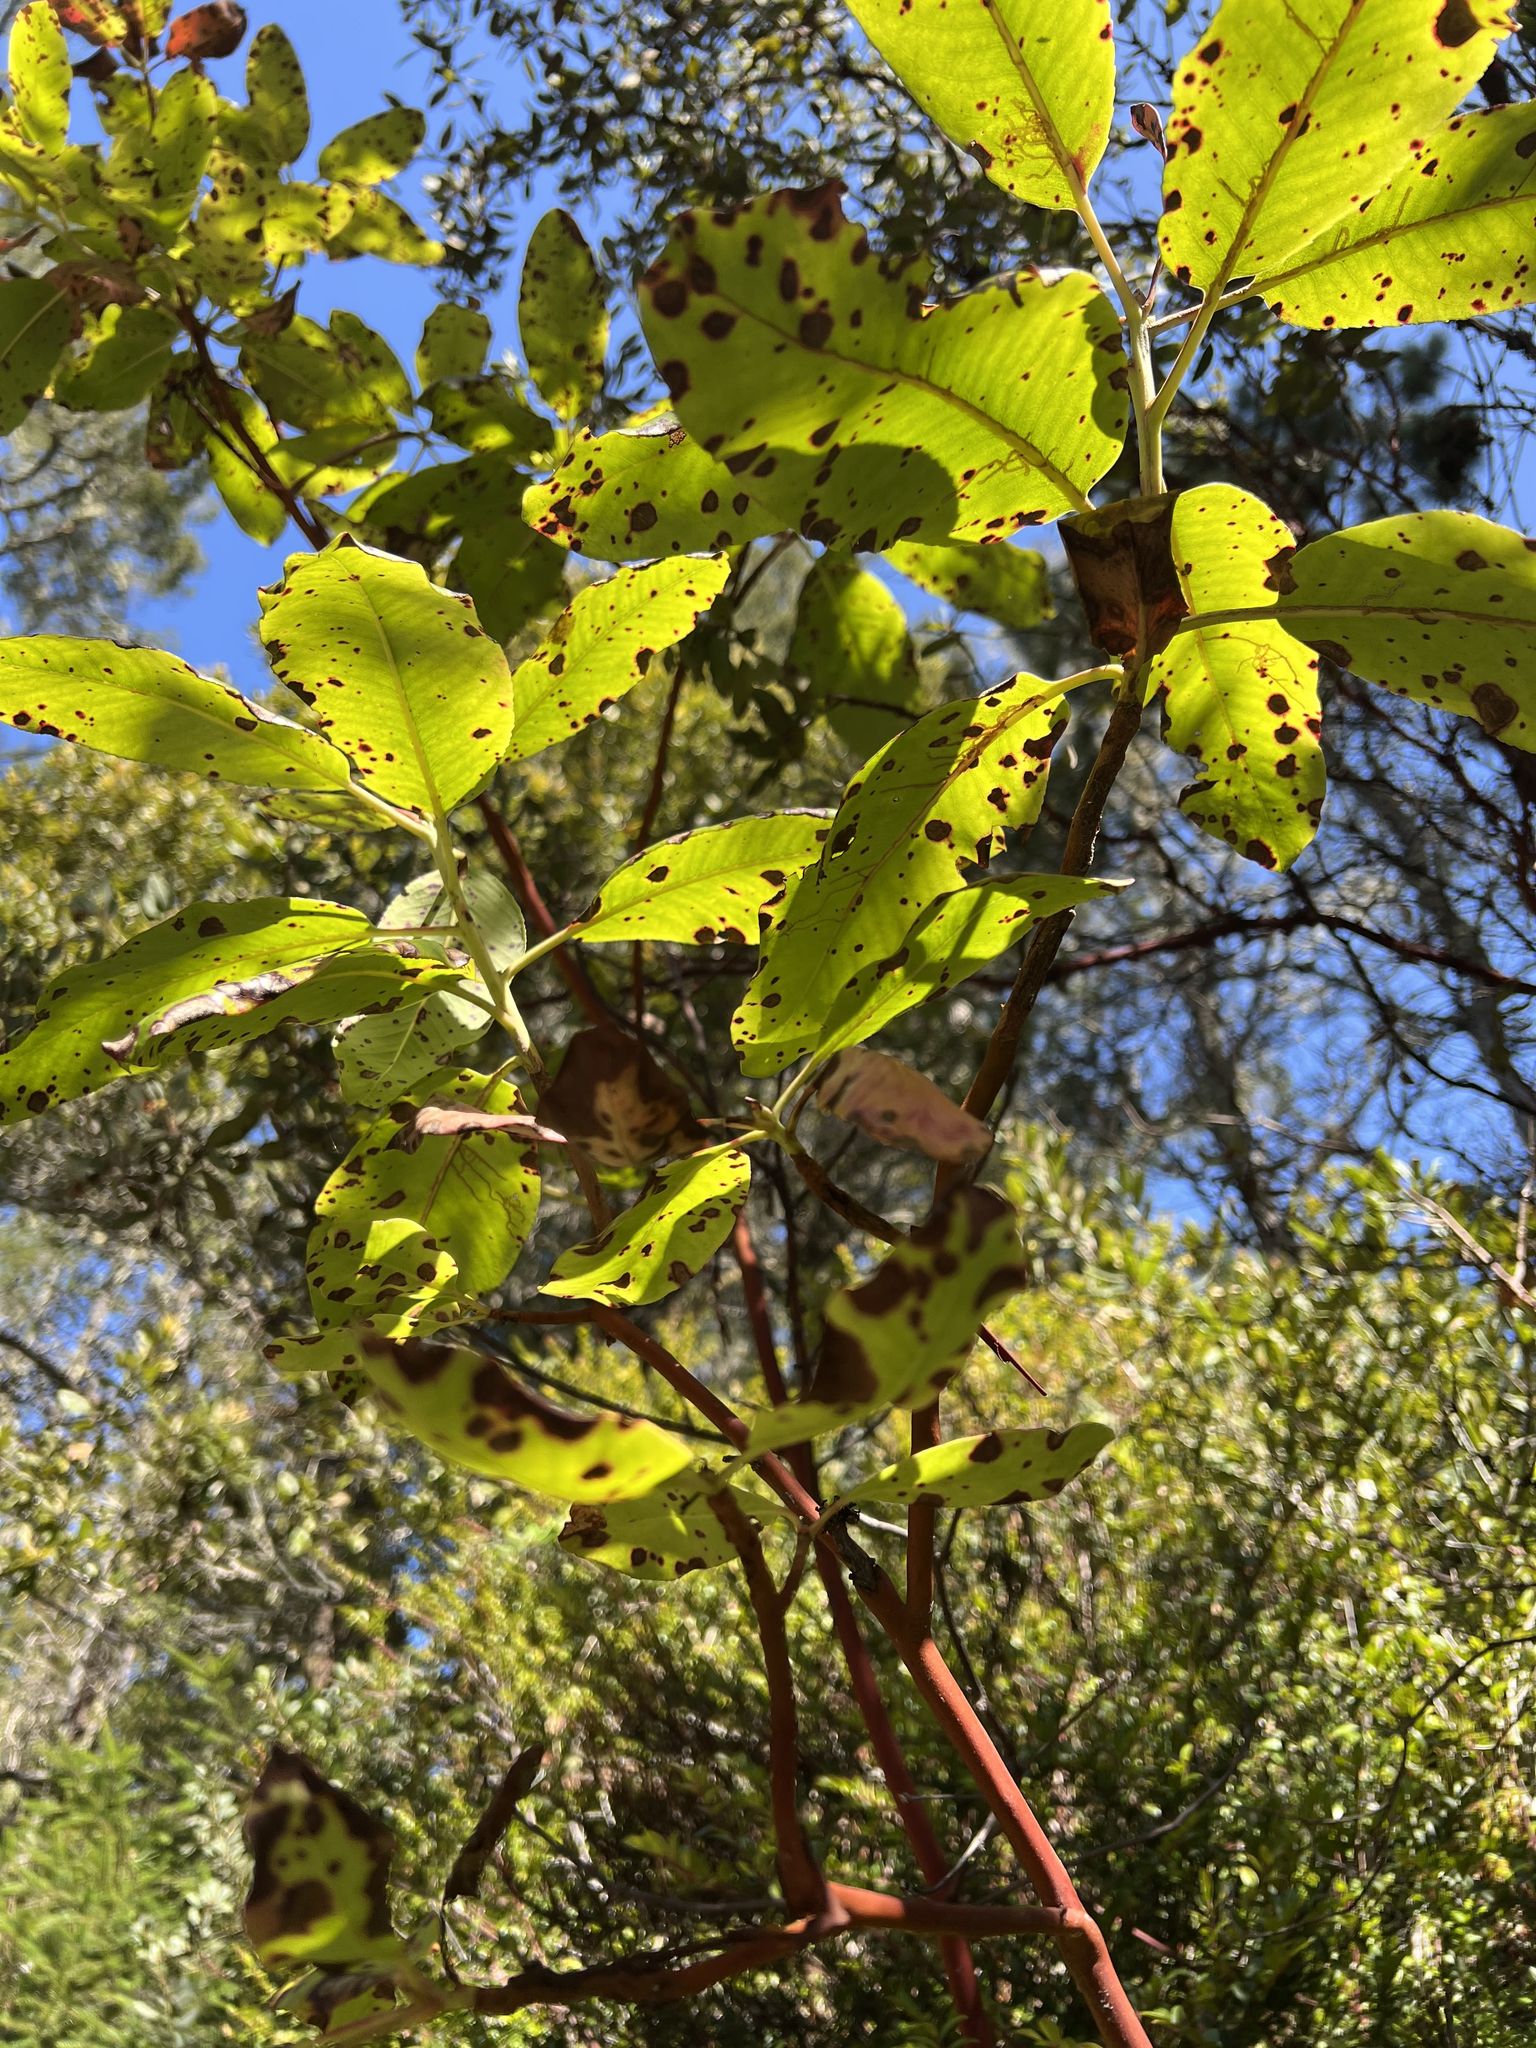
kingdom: Plantae
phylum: Tracheophyta
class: Magnoliopsida
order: Ericales
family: Ericaceae
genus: Arbutus
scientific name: Arbutus menziesii
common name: Pacific madrone
